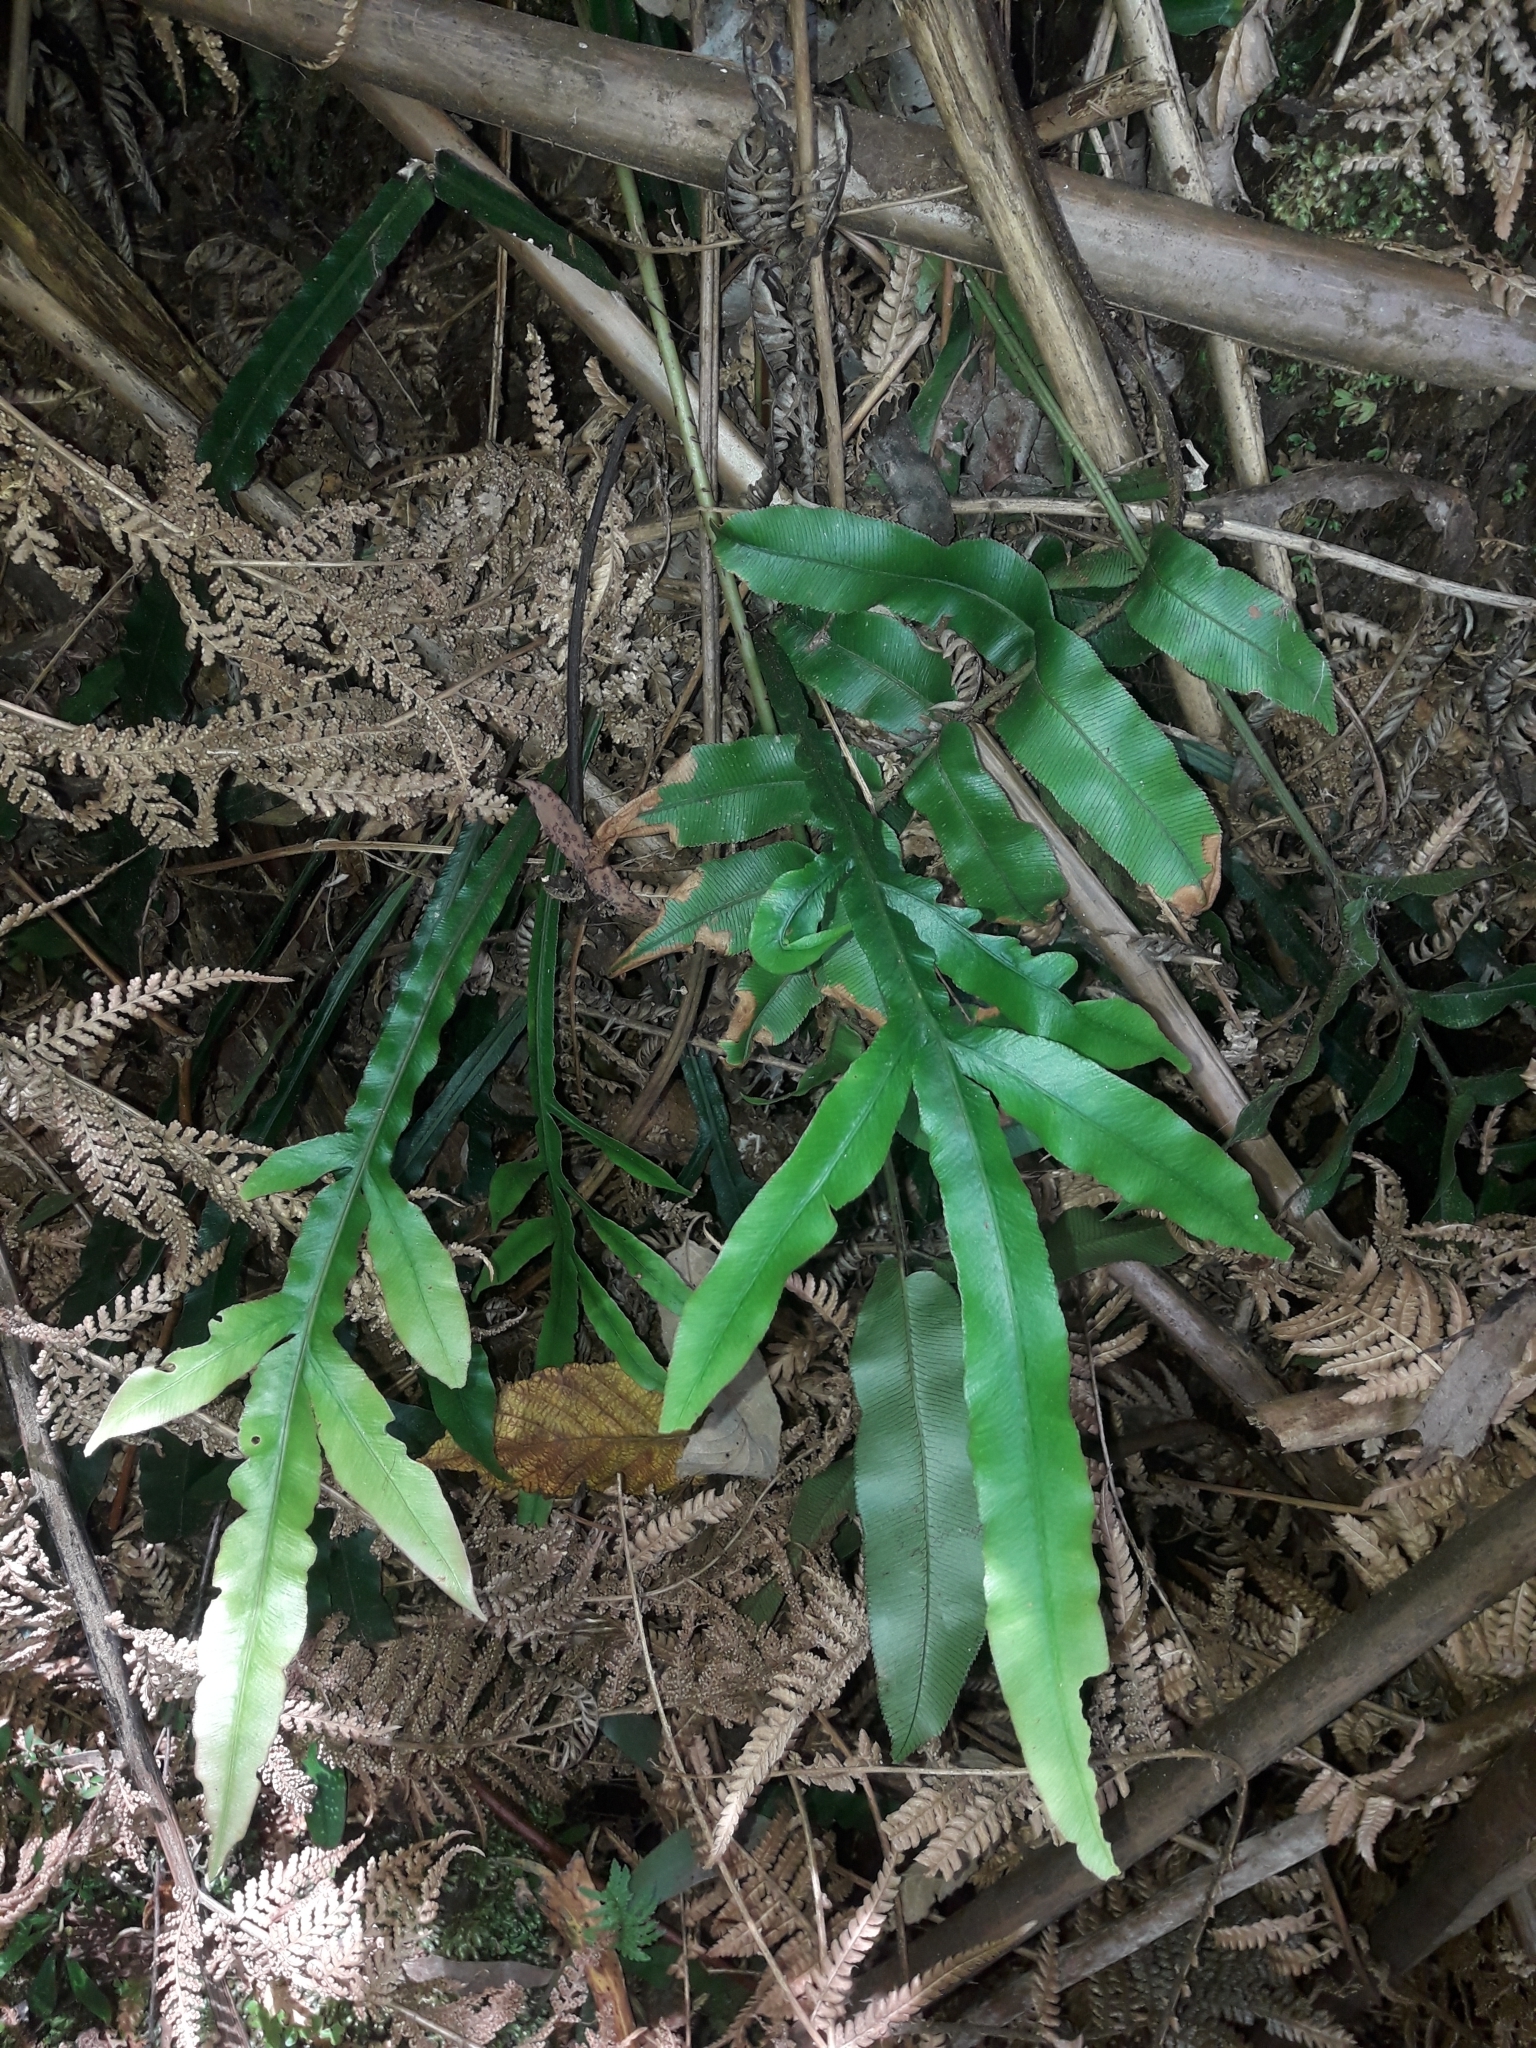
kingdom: Plantae
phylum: Tracheophyta
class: Polypodiopsida
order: Polypodiales
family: Blechnaceae
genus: Austroblechnum
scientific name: Austroblechnum patersonii
